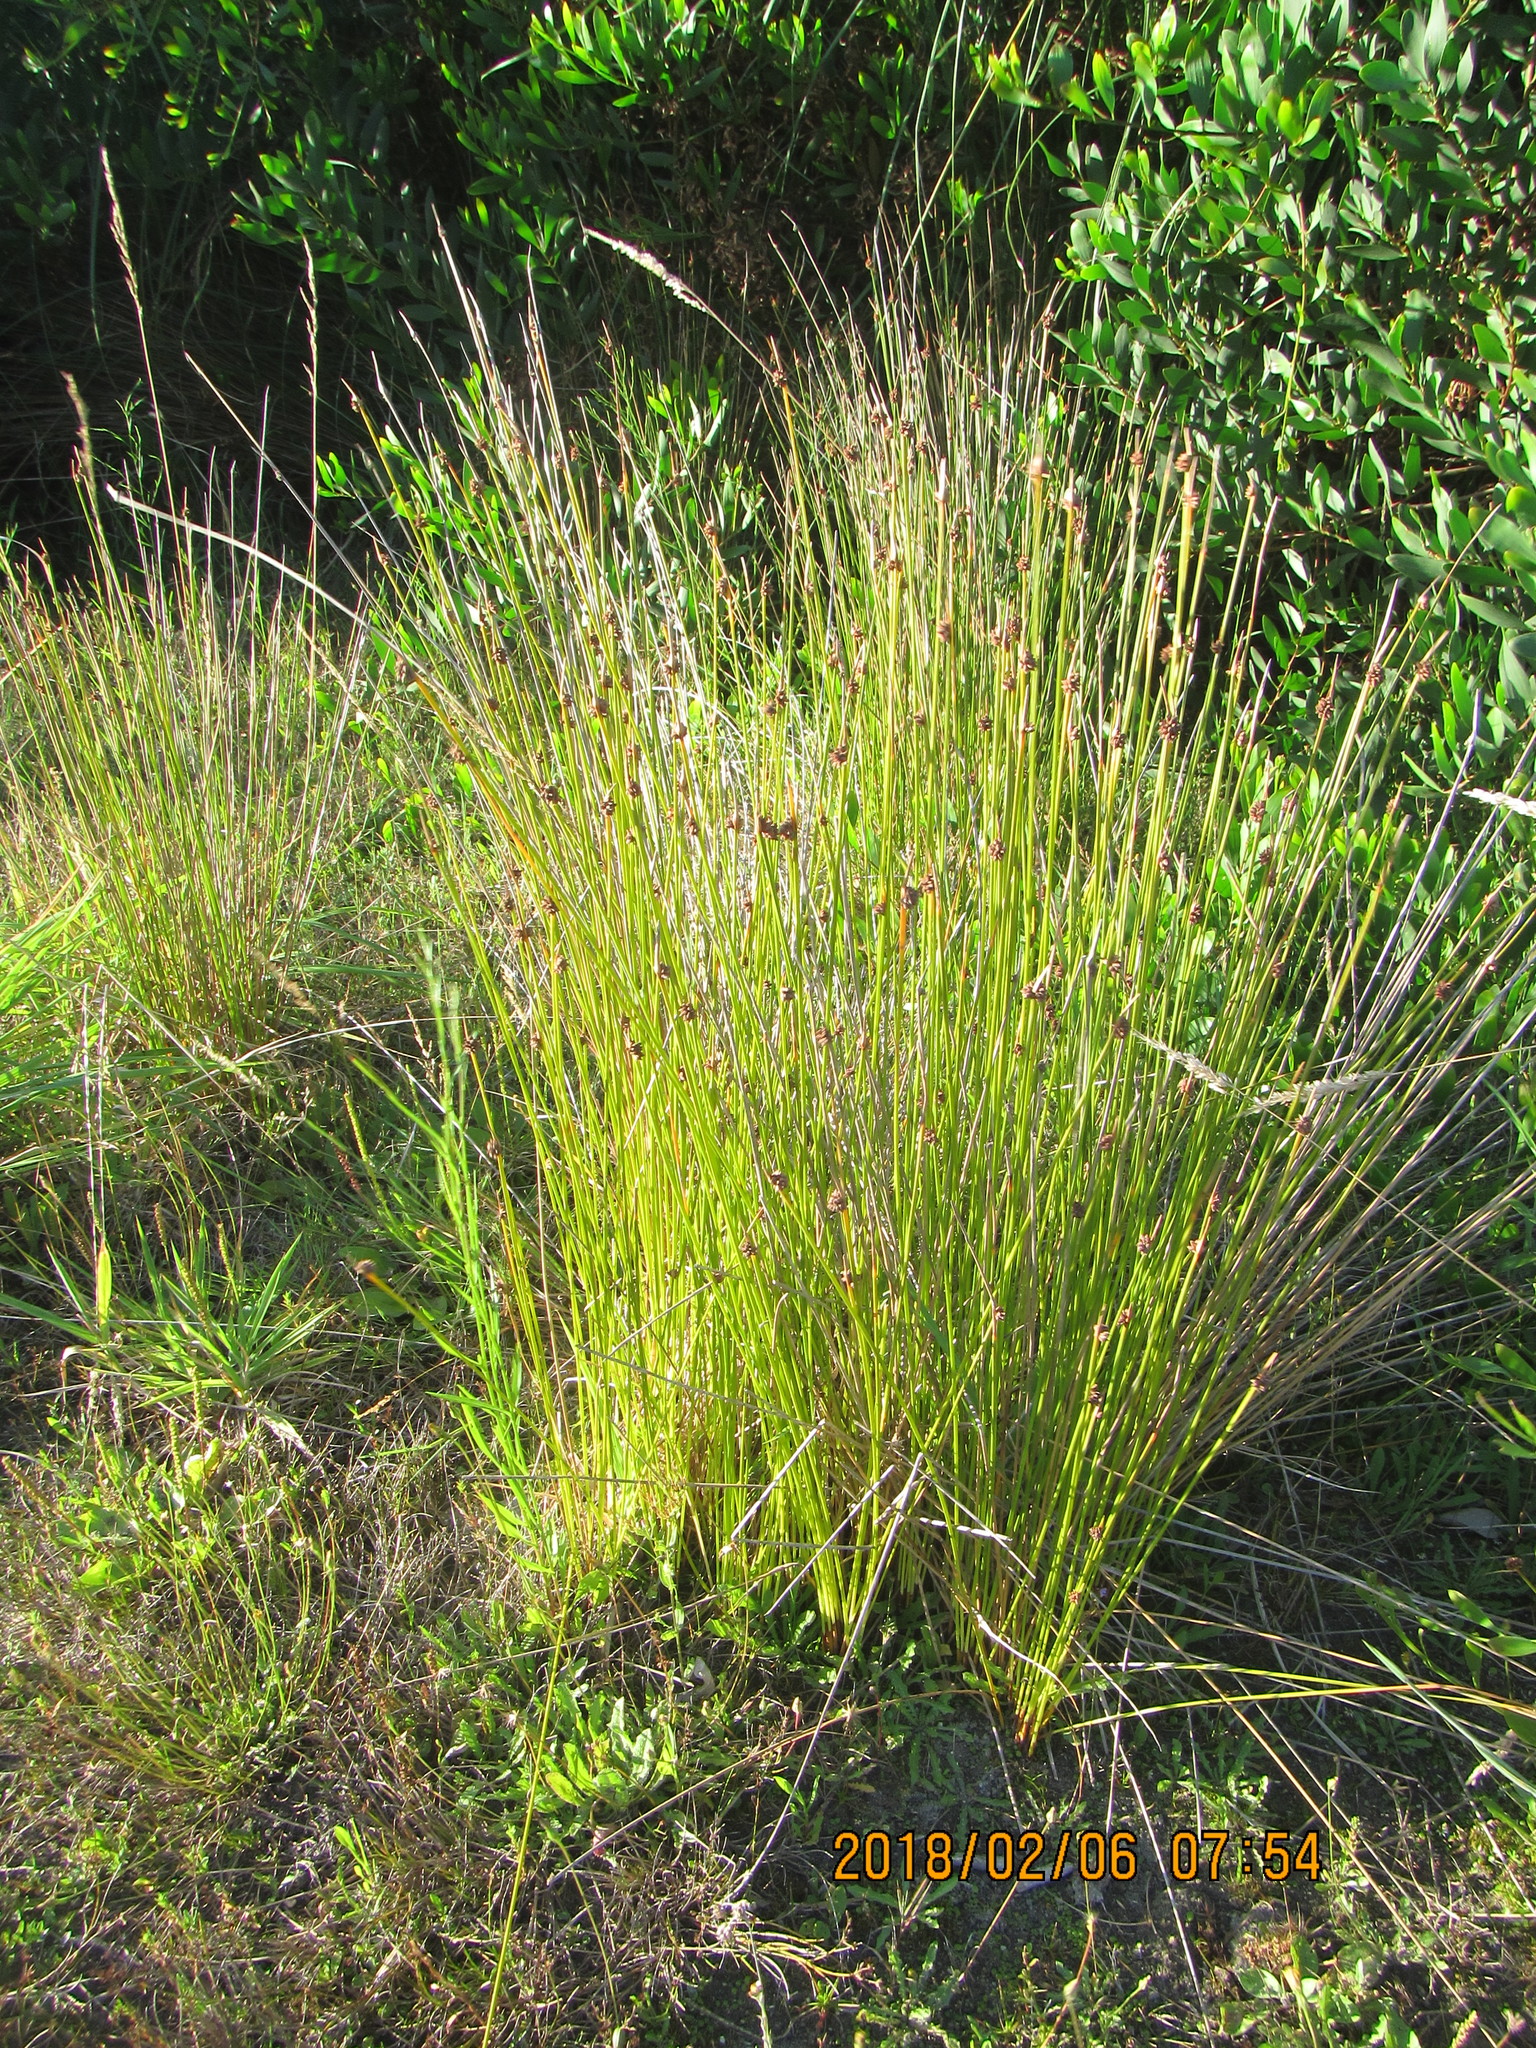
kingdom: Plantae
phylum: Tracheophyta
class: Liliopsida
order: Poales
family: Cyperaceae
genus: Ficinia
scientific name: Ficinia nodosa
